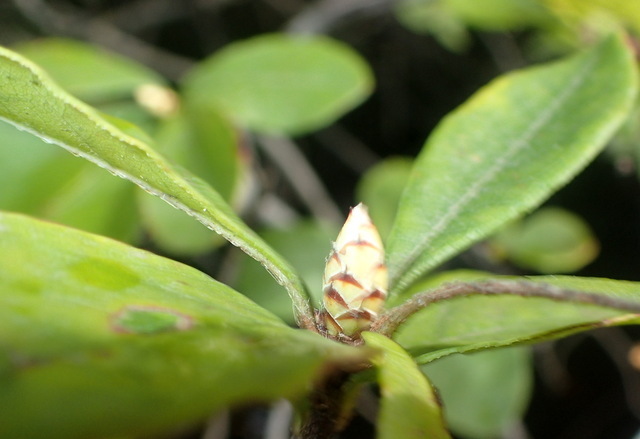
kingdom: Plantae
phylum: Tracheophyta
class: Magnoliopsida
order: Ericales
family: Ericaceae
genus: Rhododendron
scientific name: Rhododendron serrulatum
